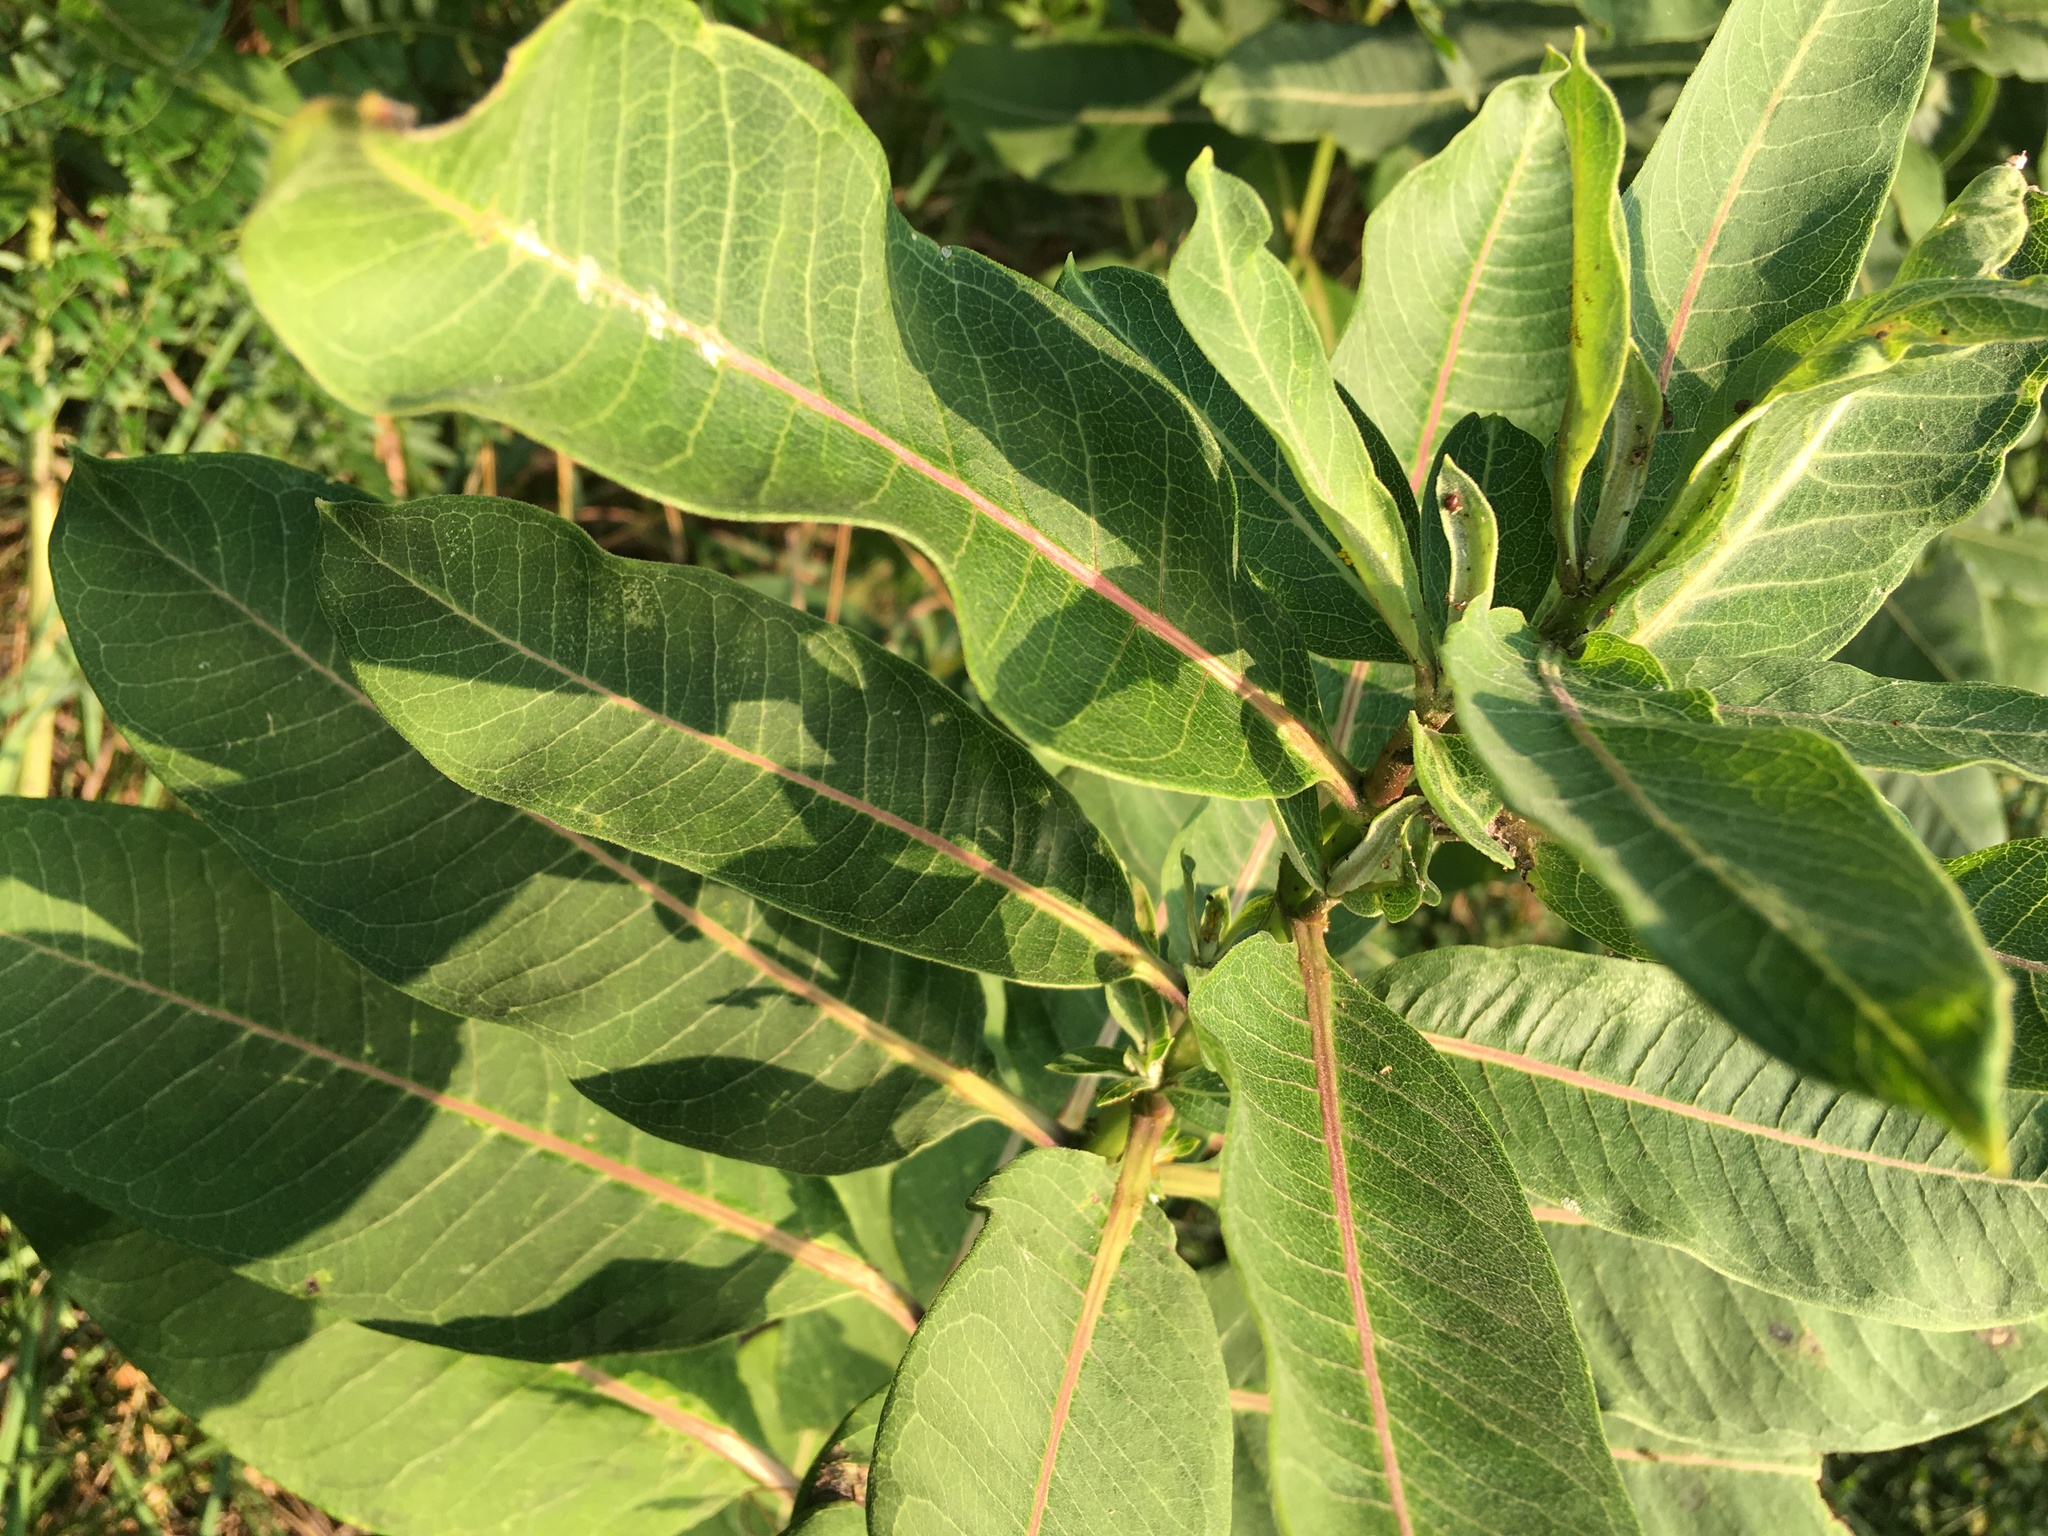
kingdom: Plantae
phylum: Tracheophyta
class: Magnoliopsida
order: Gentianales
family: Apocynaceae
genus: Asclepias
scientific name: Asclepias syriaca
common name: Common milkweed
